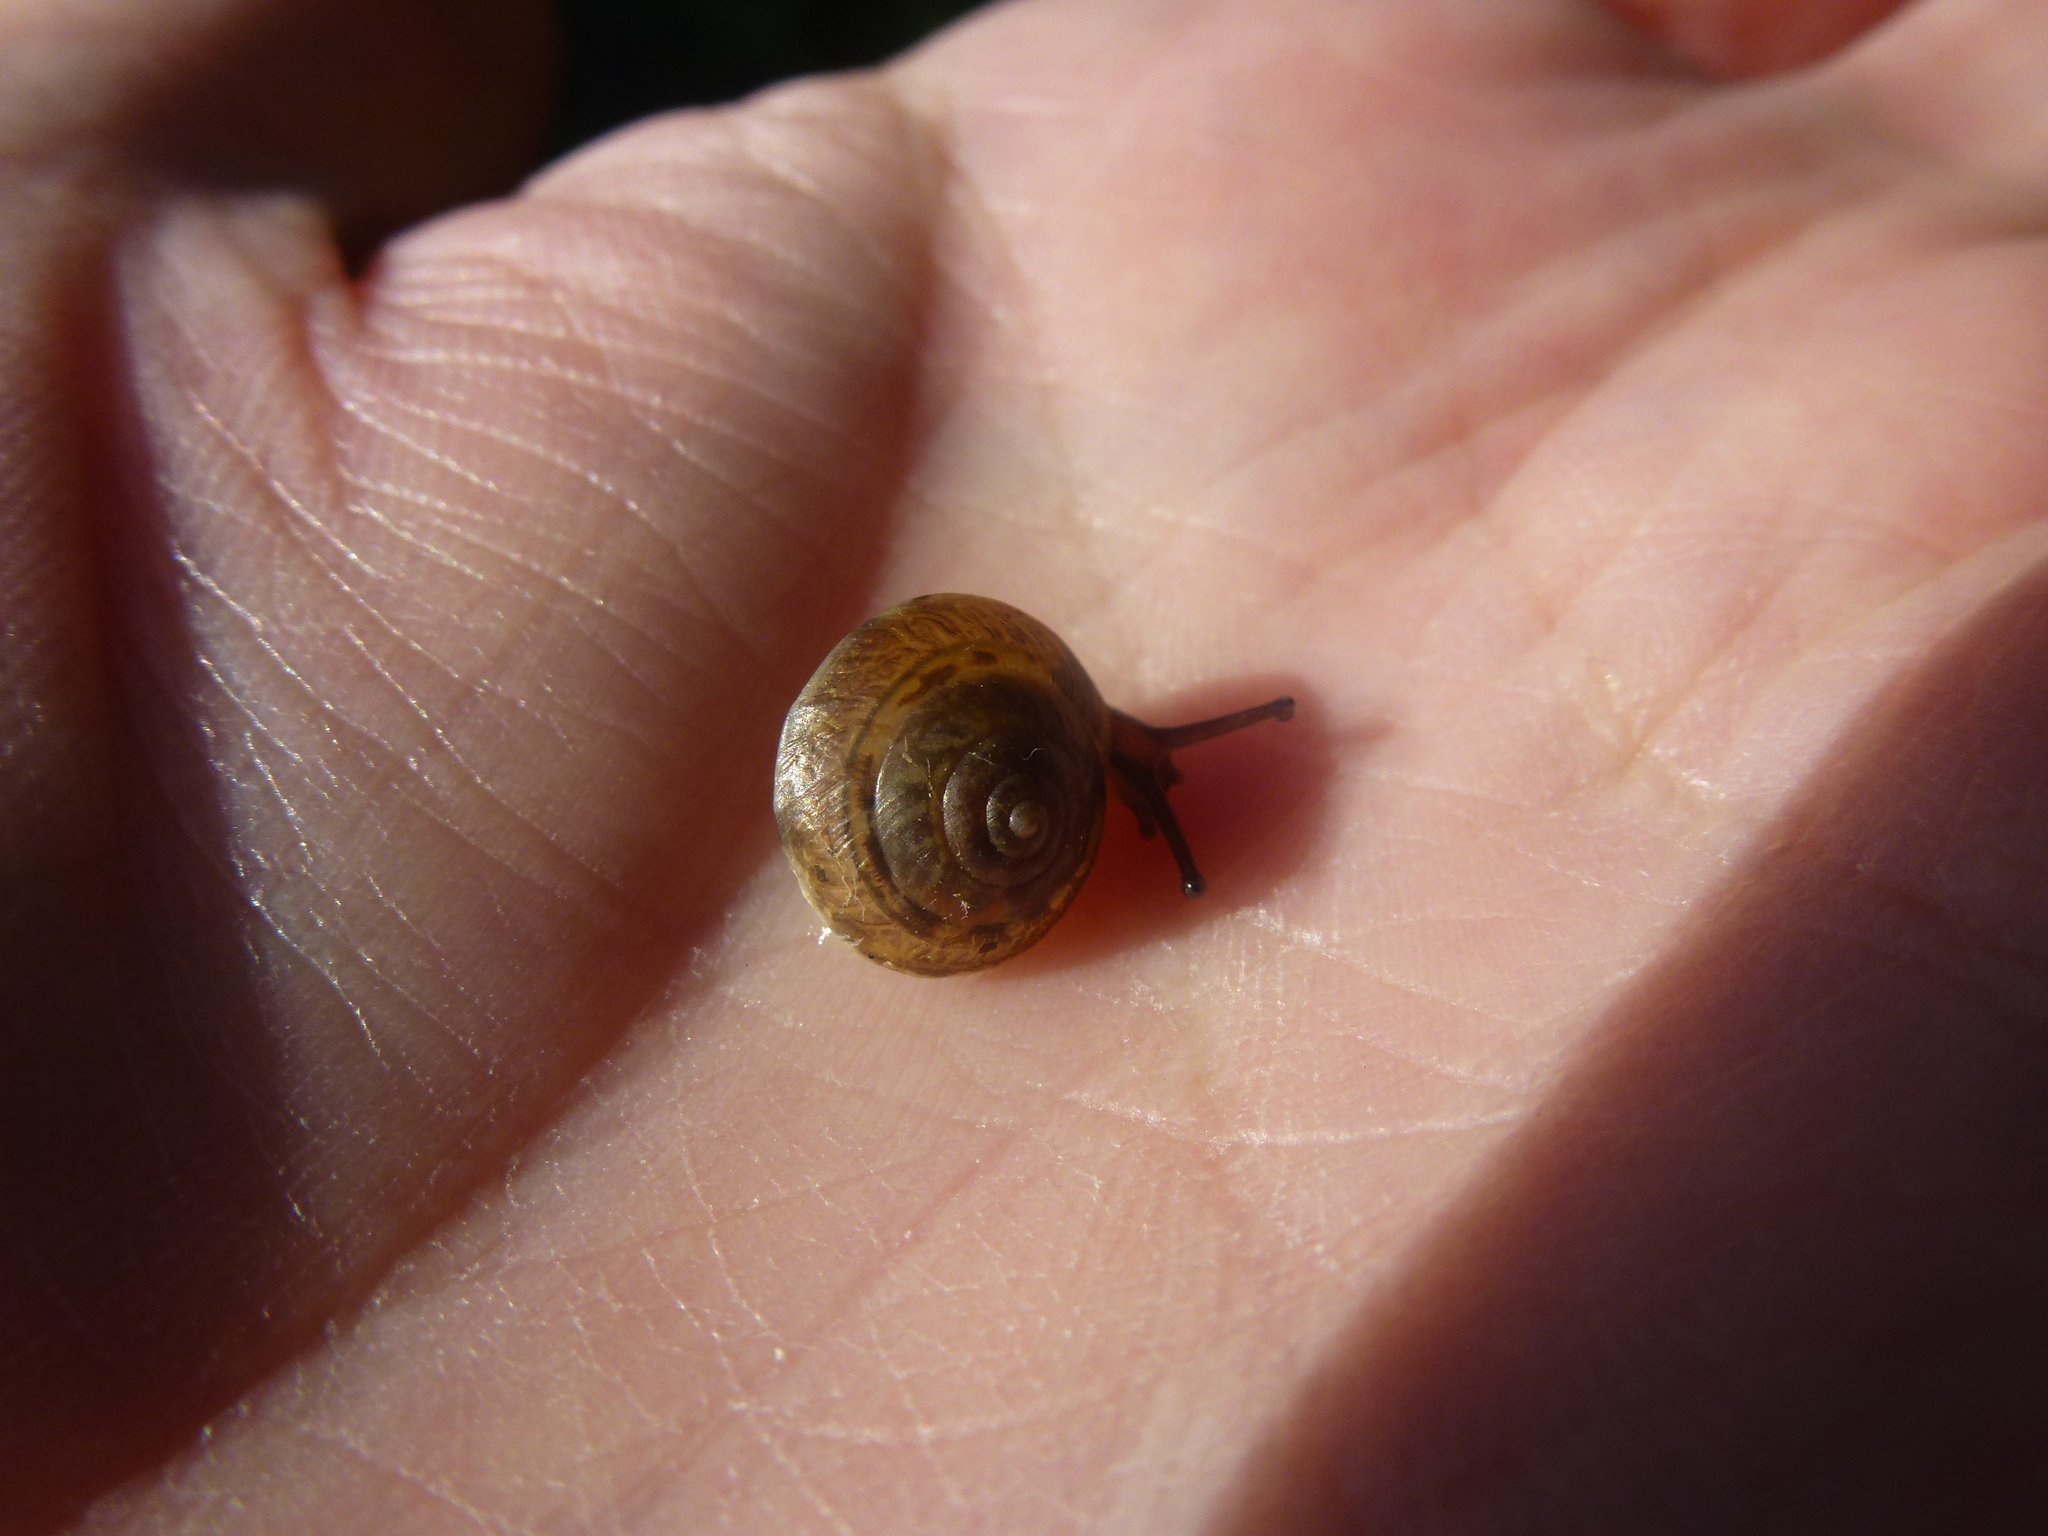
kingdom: Animalia
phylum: Mollusca
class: Gastropoda
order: Stylommatophora
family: Hygromiidae
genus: Hygromia
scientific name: Hygromia cinctella
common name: Girdled snail
